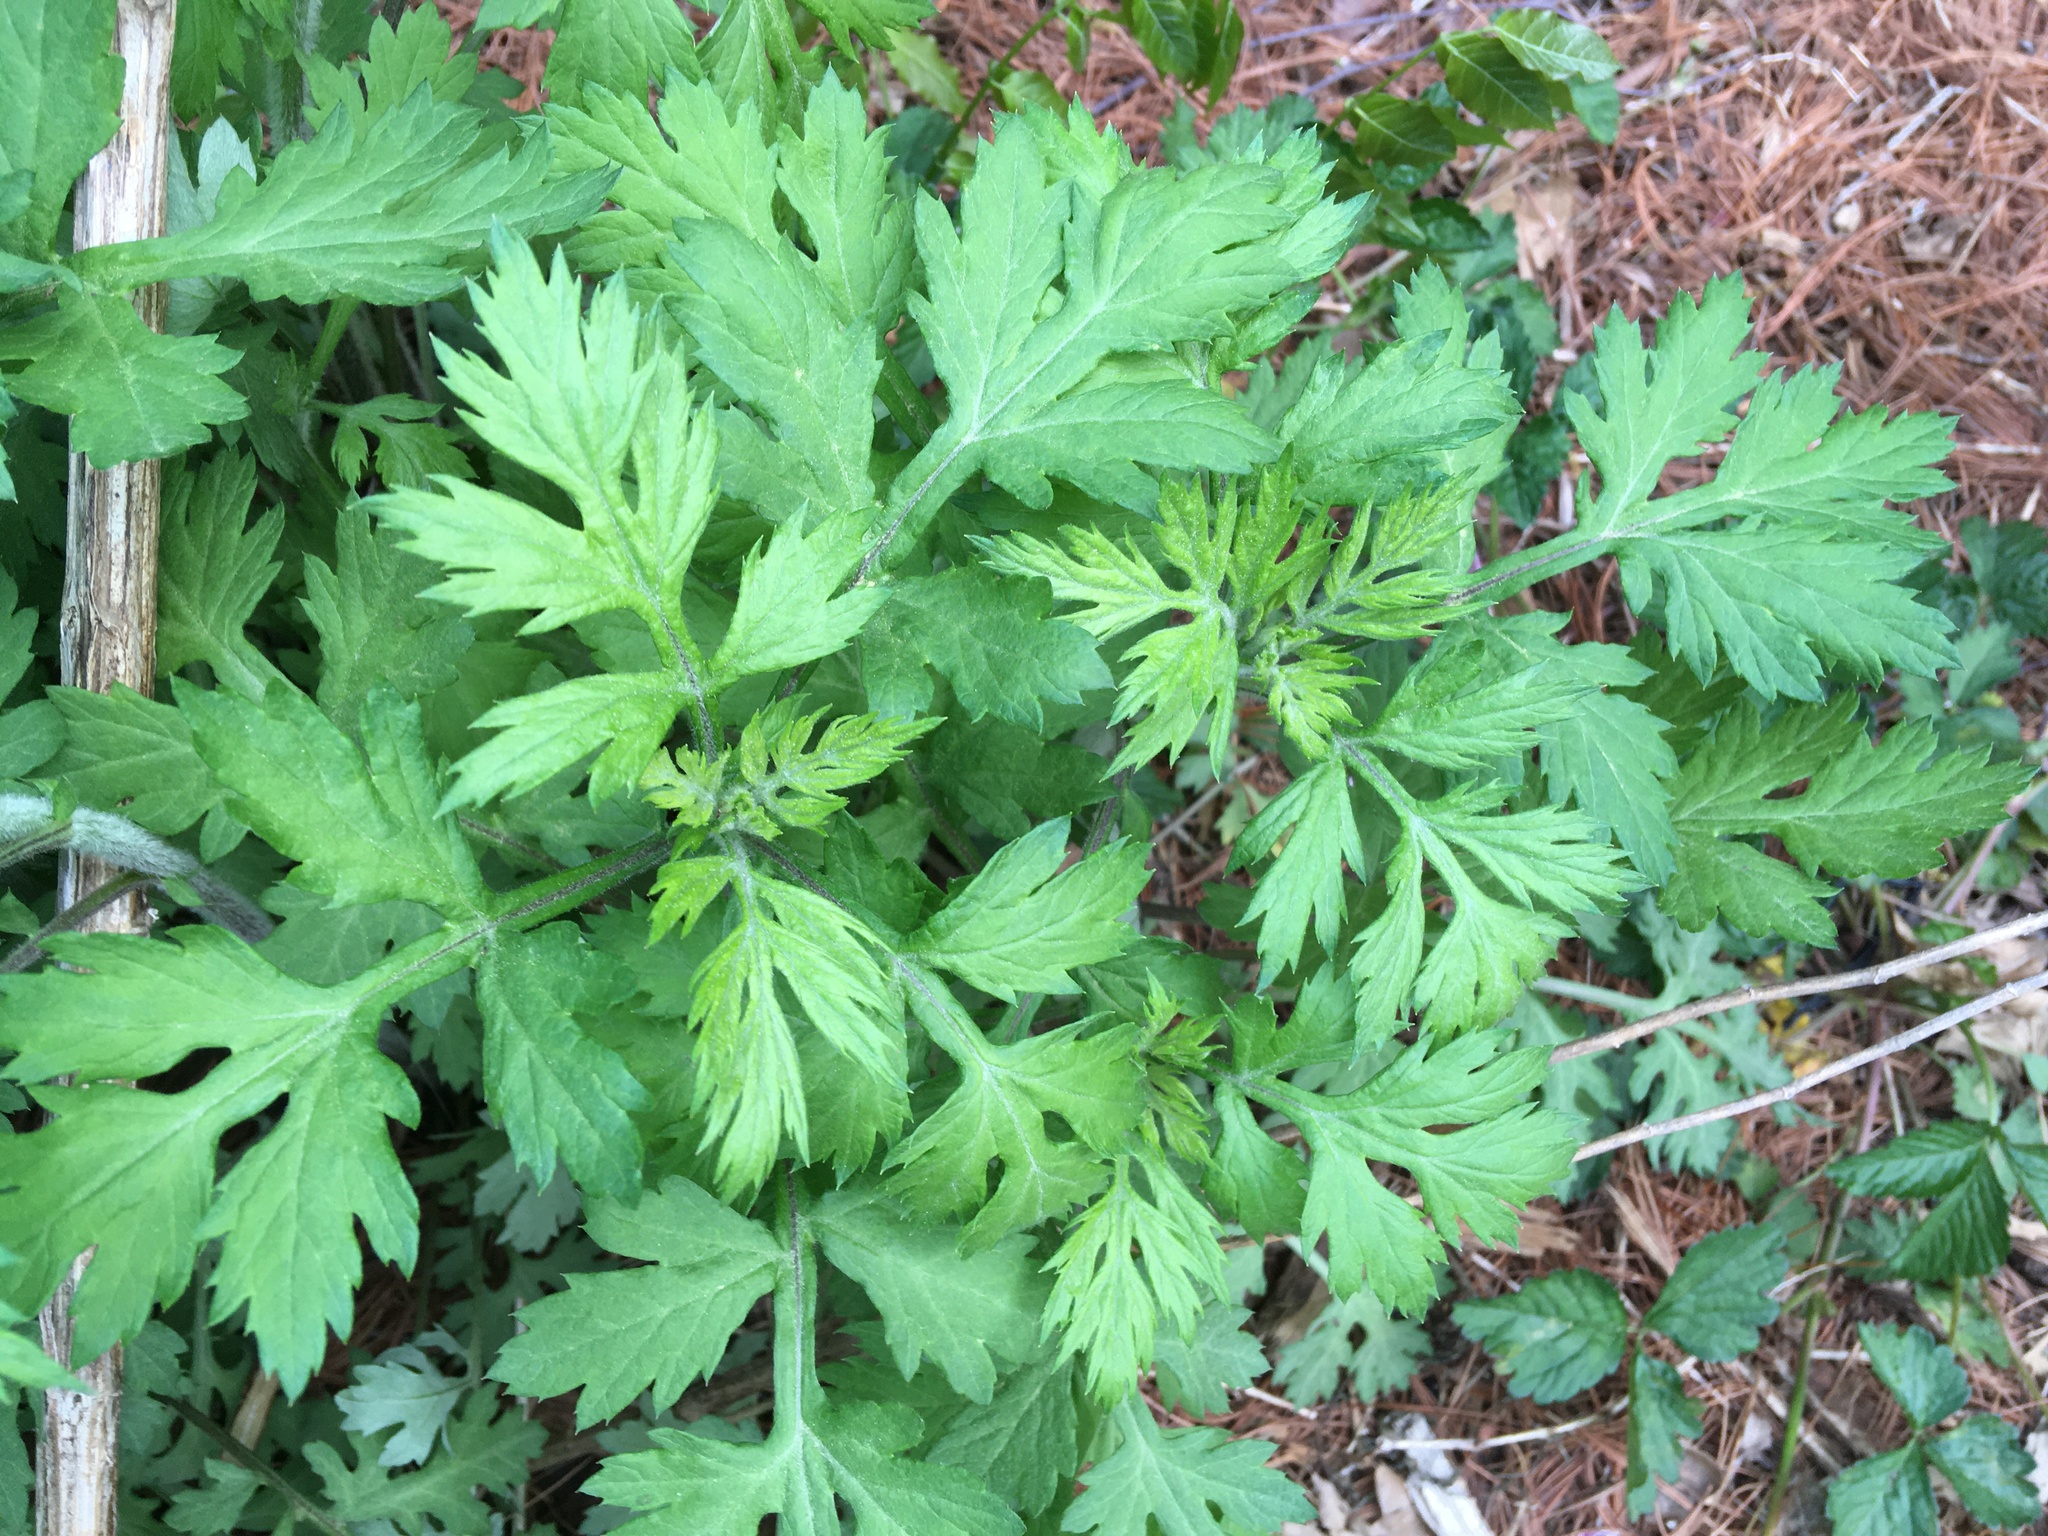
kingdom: Plantae
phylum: Tracheophyta
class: Magnoliopsida
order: Asterales
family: Asteraceae
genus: Artemisia
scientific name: Artemisia vulgaris
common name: Mugwort
